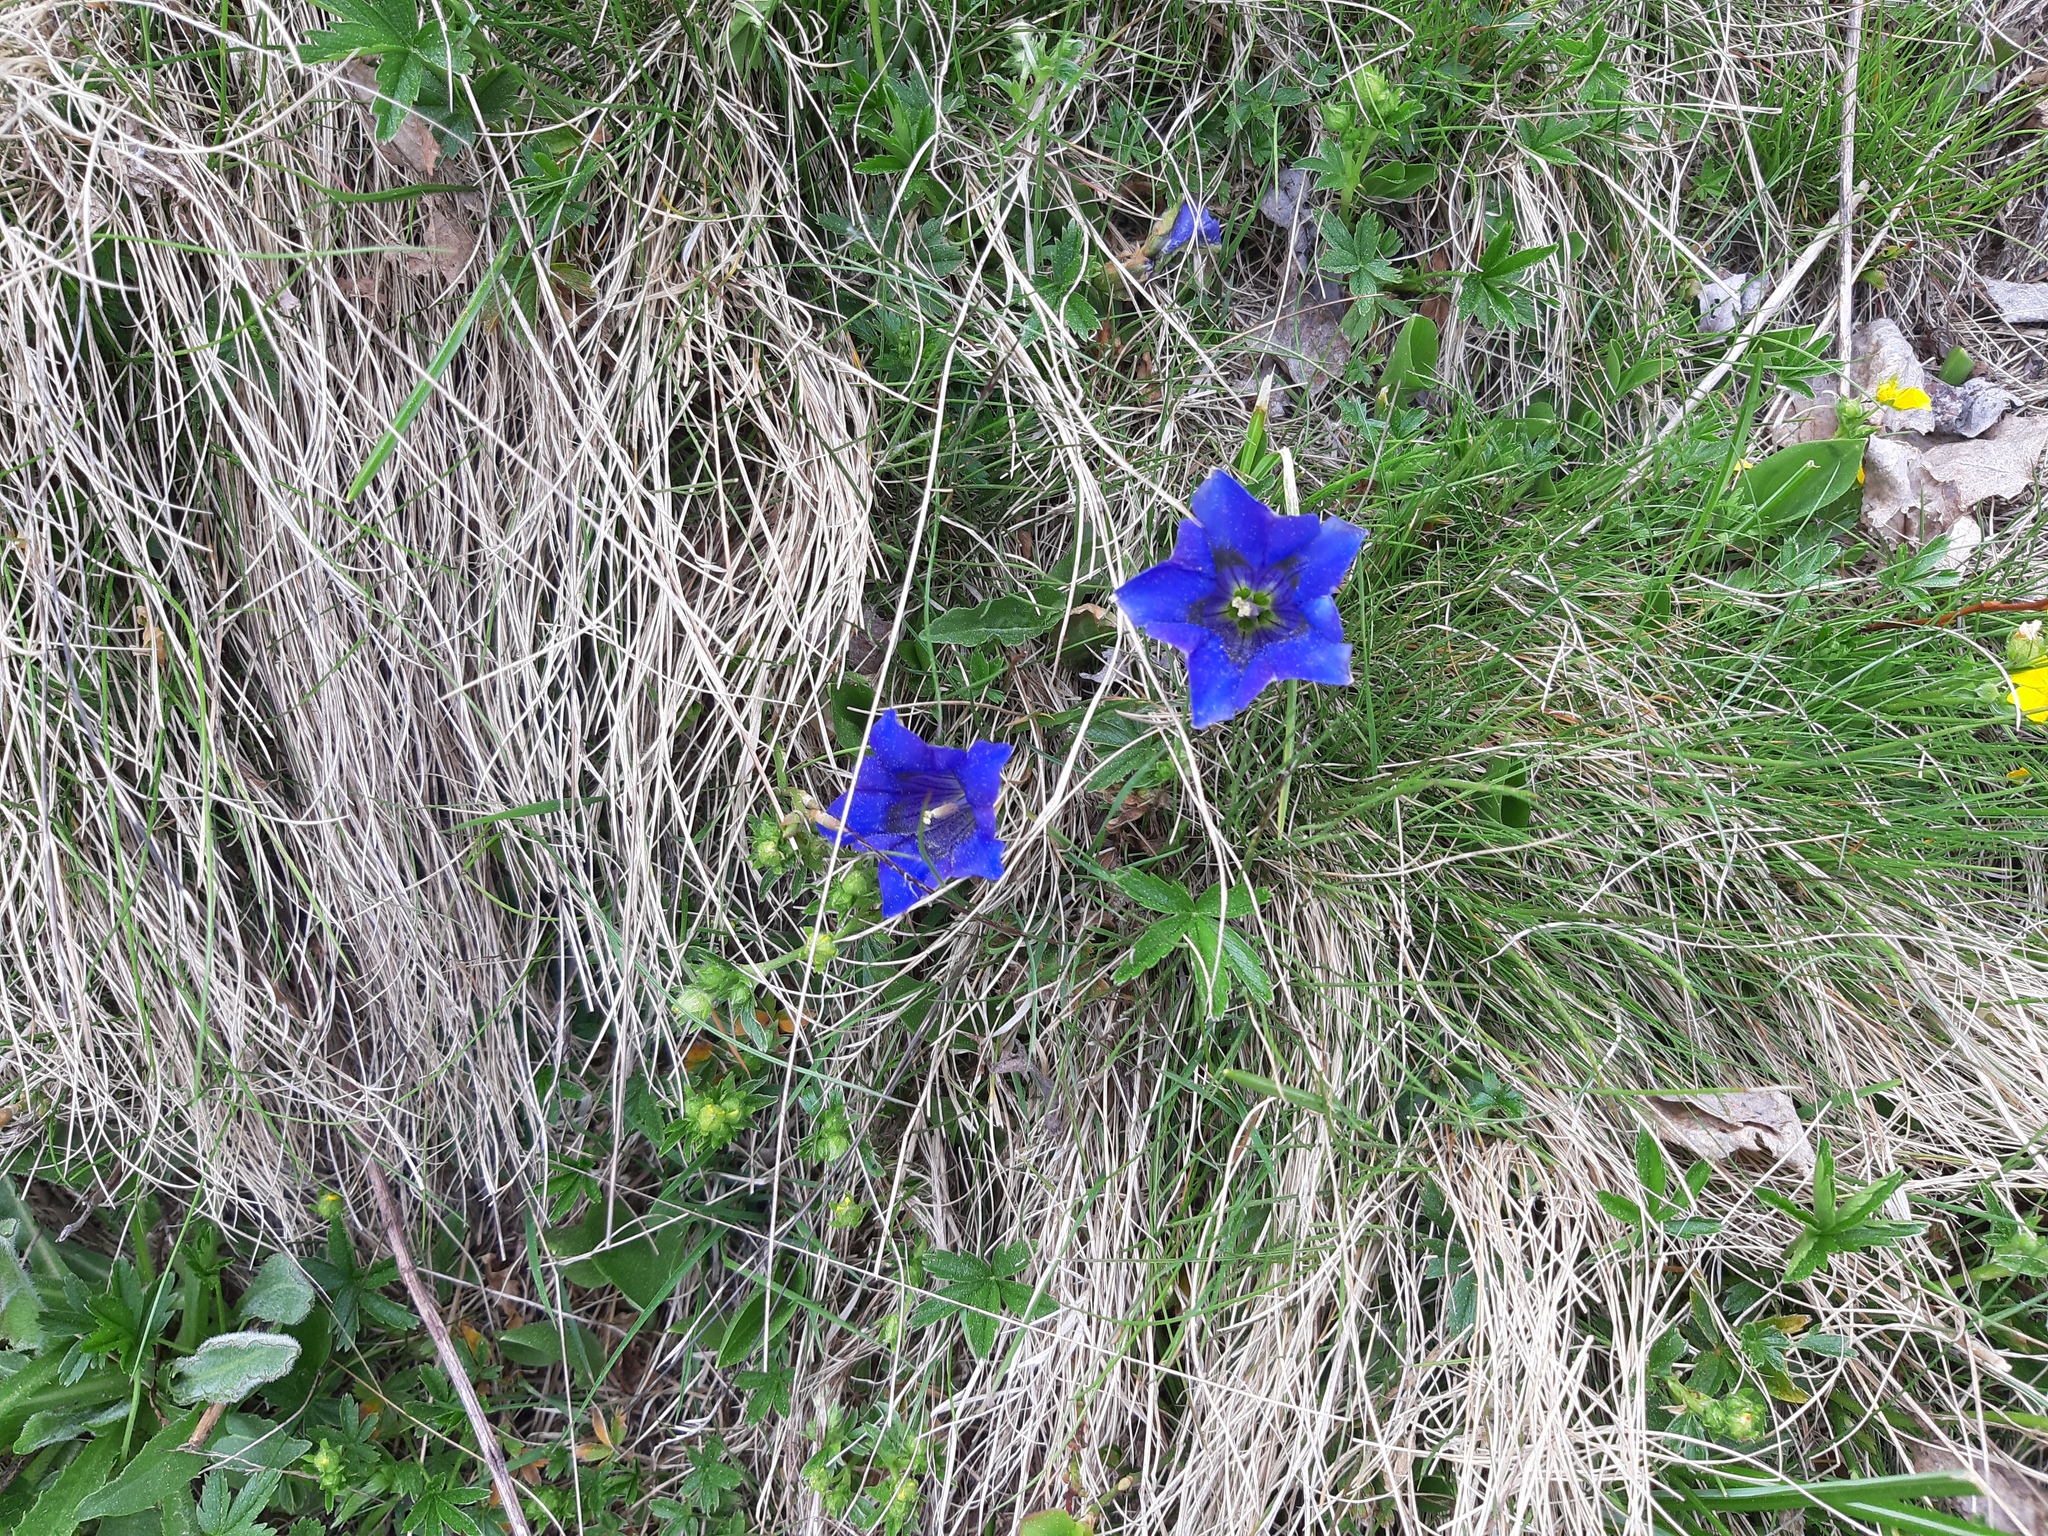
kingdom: Plantae
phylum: Tracheophyta
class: Magnoliopsida
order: Gentianales
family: Gentianaceae
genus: Gentiana
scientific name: Gentiana acaulis
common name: Trumpet gentian
